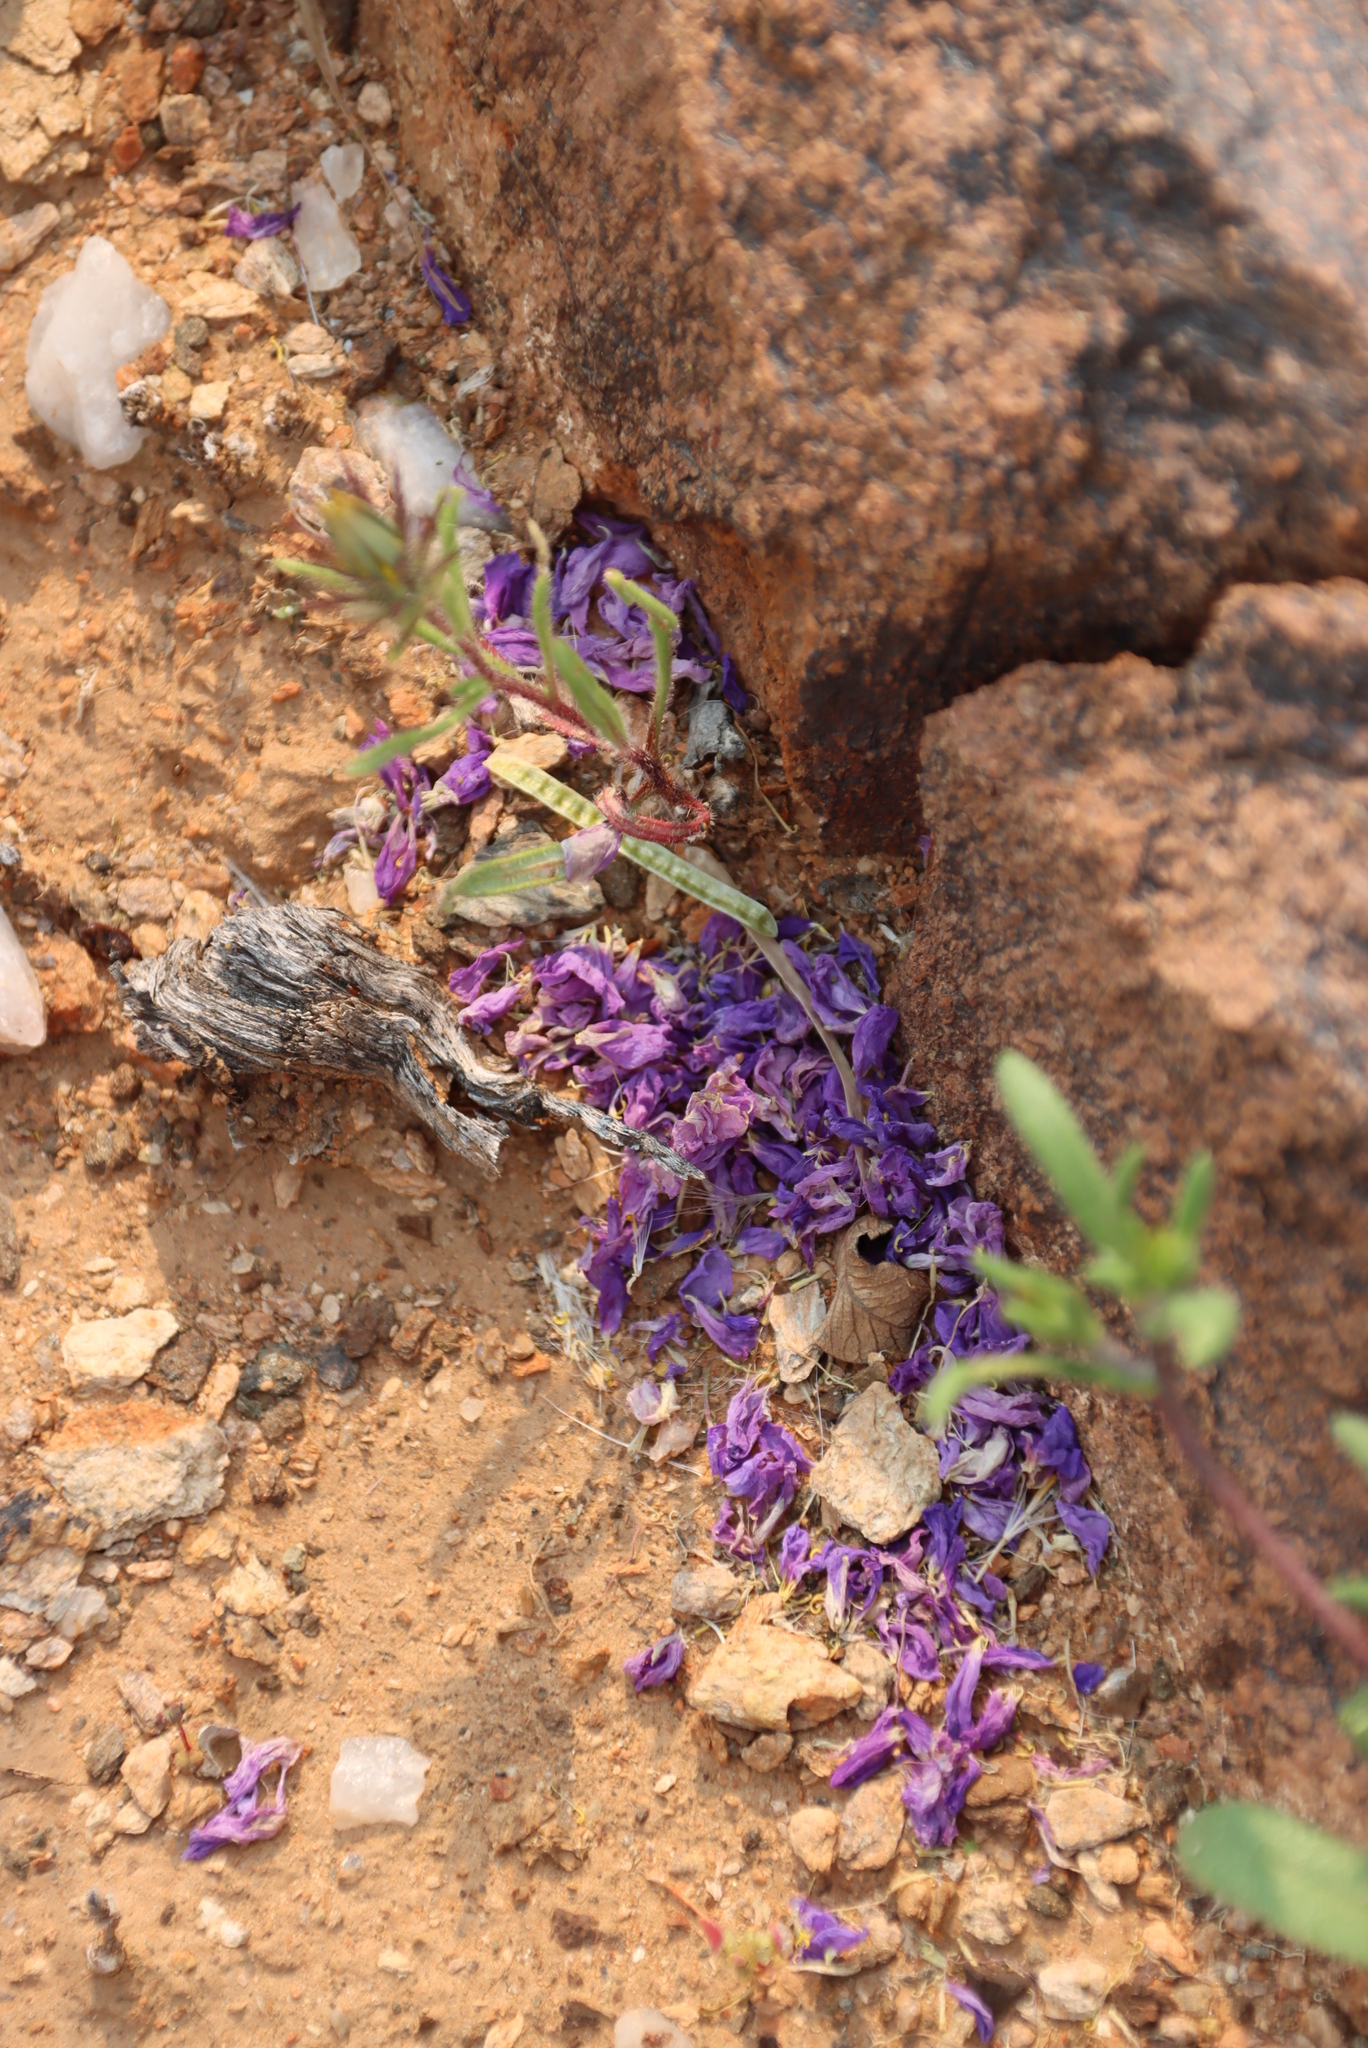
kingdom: Plantae
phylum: Tracheophyta
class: Magnoliopsida
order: Brassicales
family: Brassicaceae
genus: Heliophila
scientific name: Heliophila trifurca
